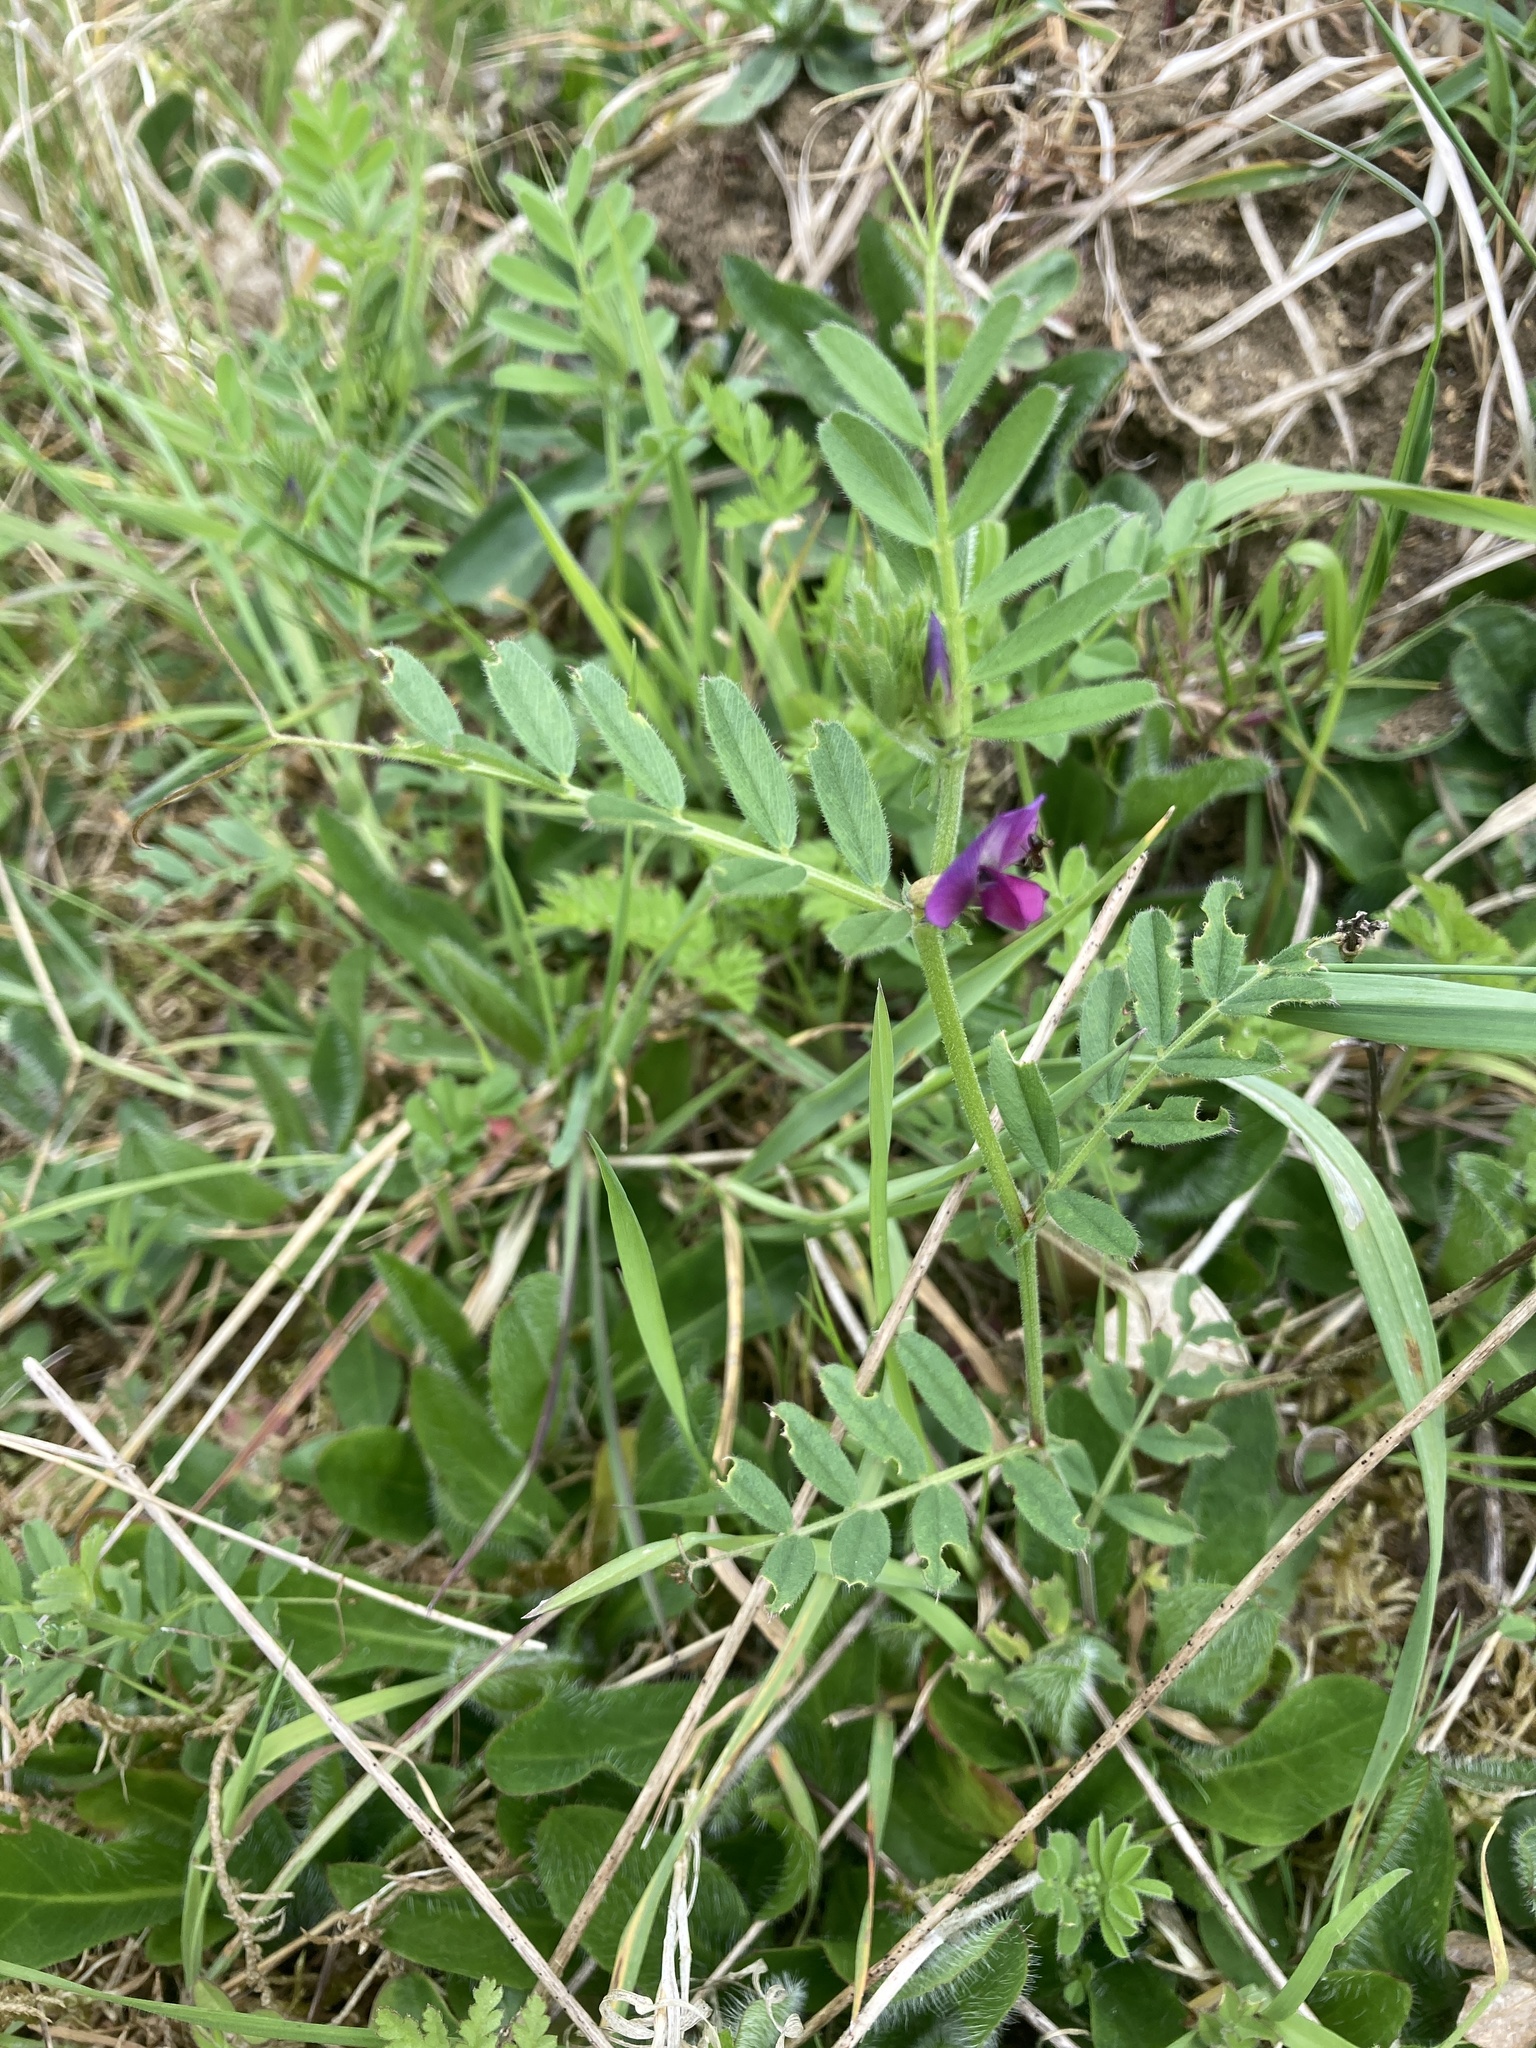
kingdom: Plantae
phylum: Tracheophyta
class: Magnoliopsida
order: Fabales
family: Fabaceae
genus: Vicia
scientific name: Vicia sativa
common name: Garden vetch
